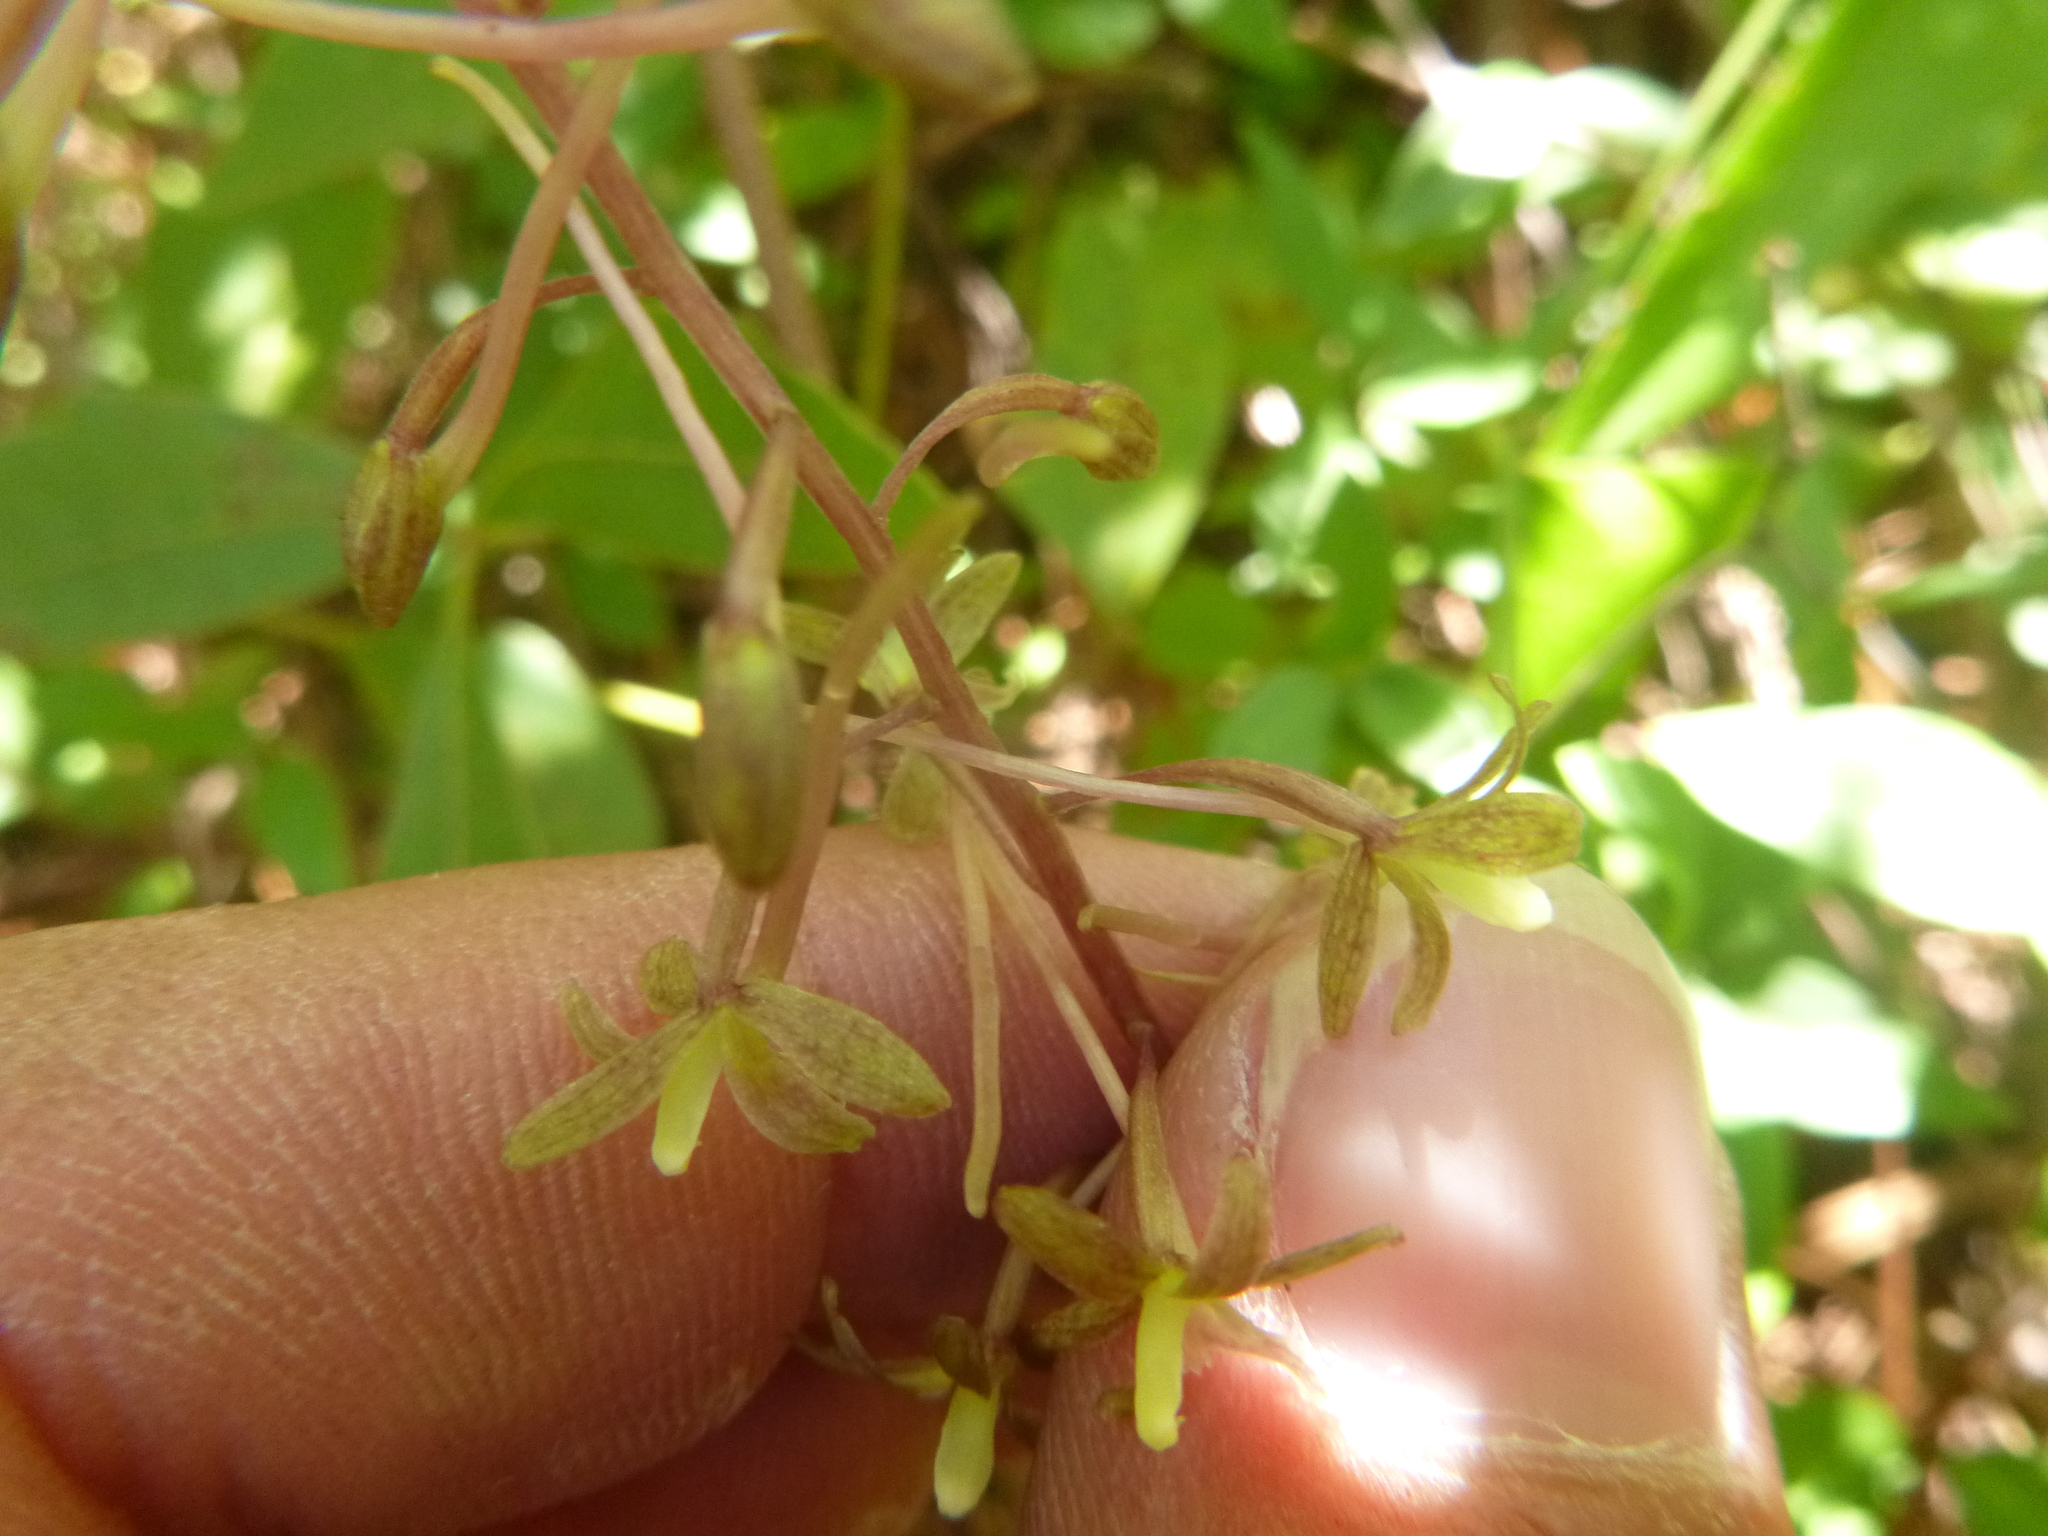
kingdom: Plantae
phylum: Tracheophyta
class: Liliopsida
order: Asparagales
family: Orchidaceae
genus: Tipularia
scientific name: Tipularia discolor
